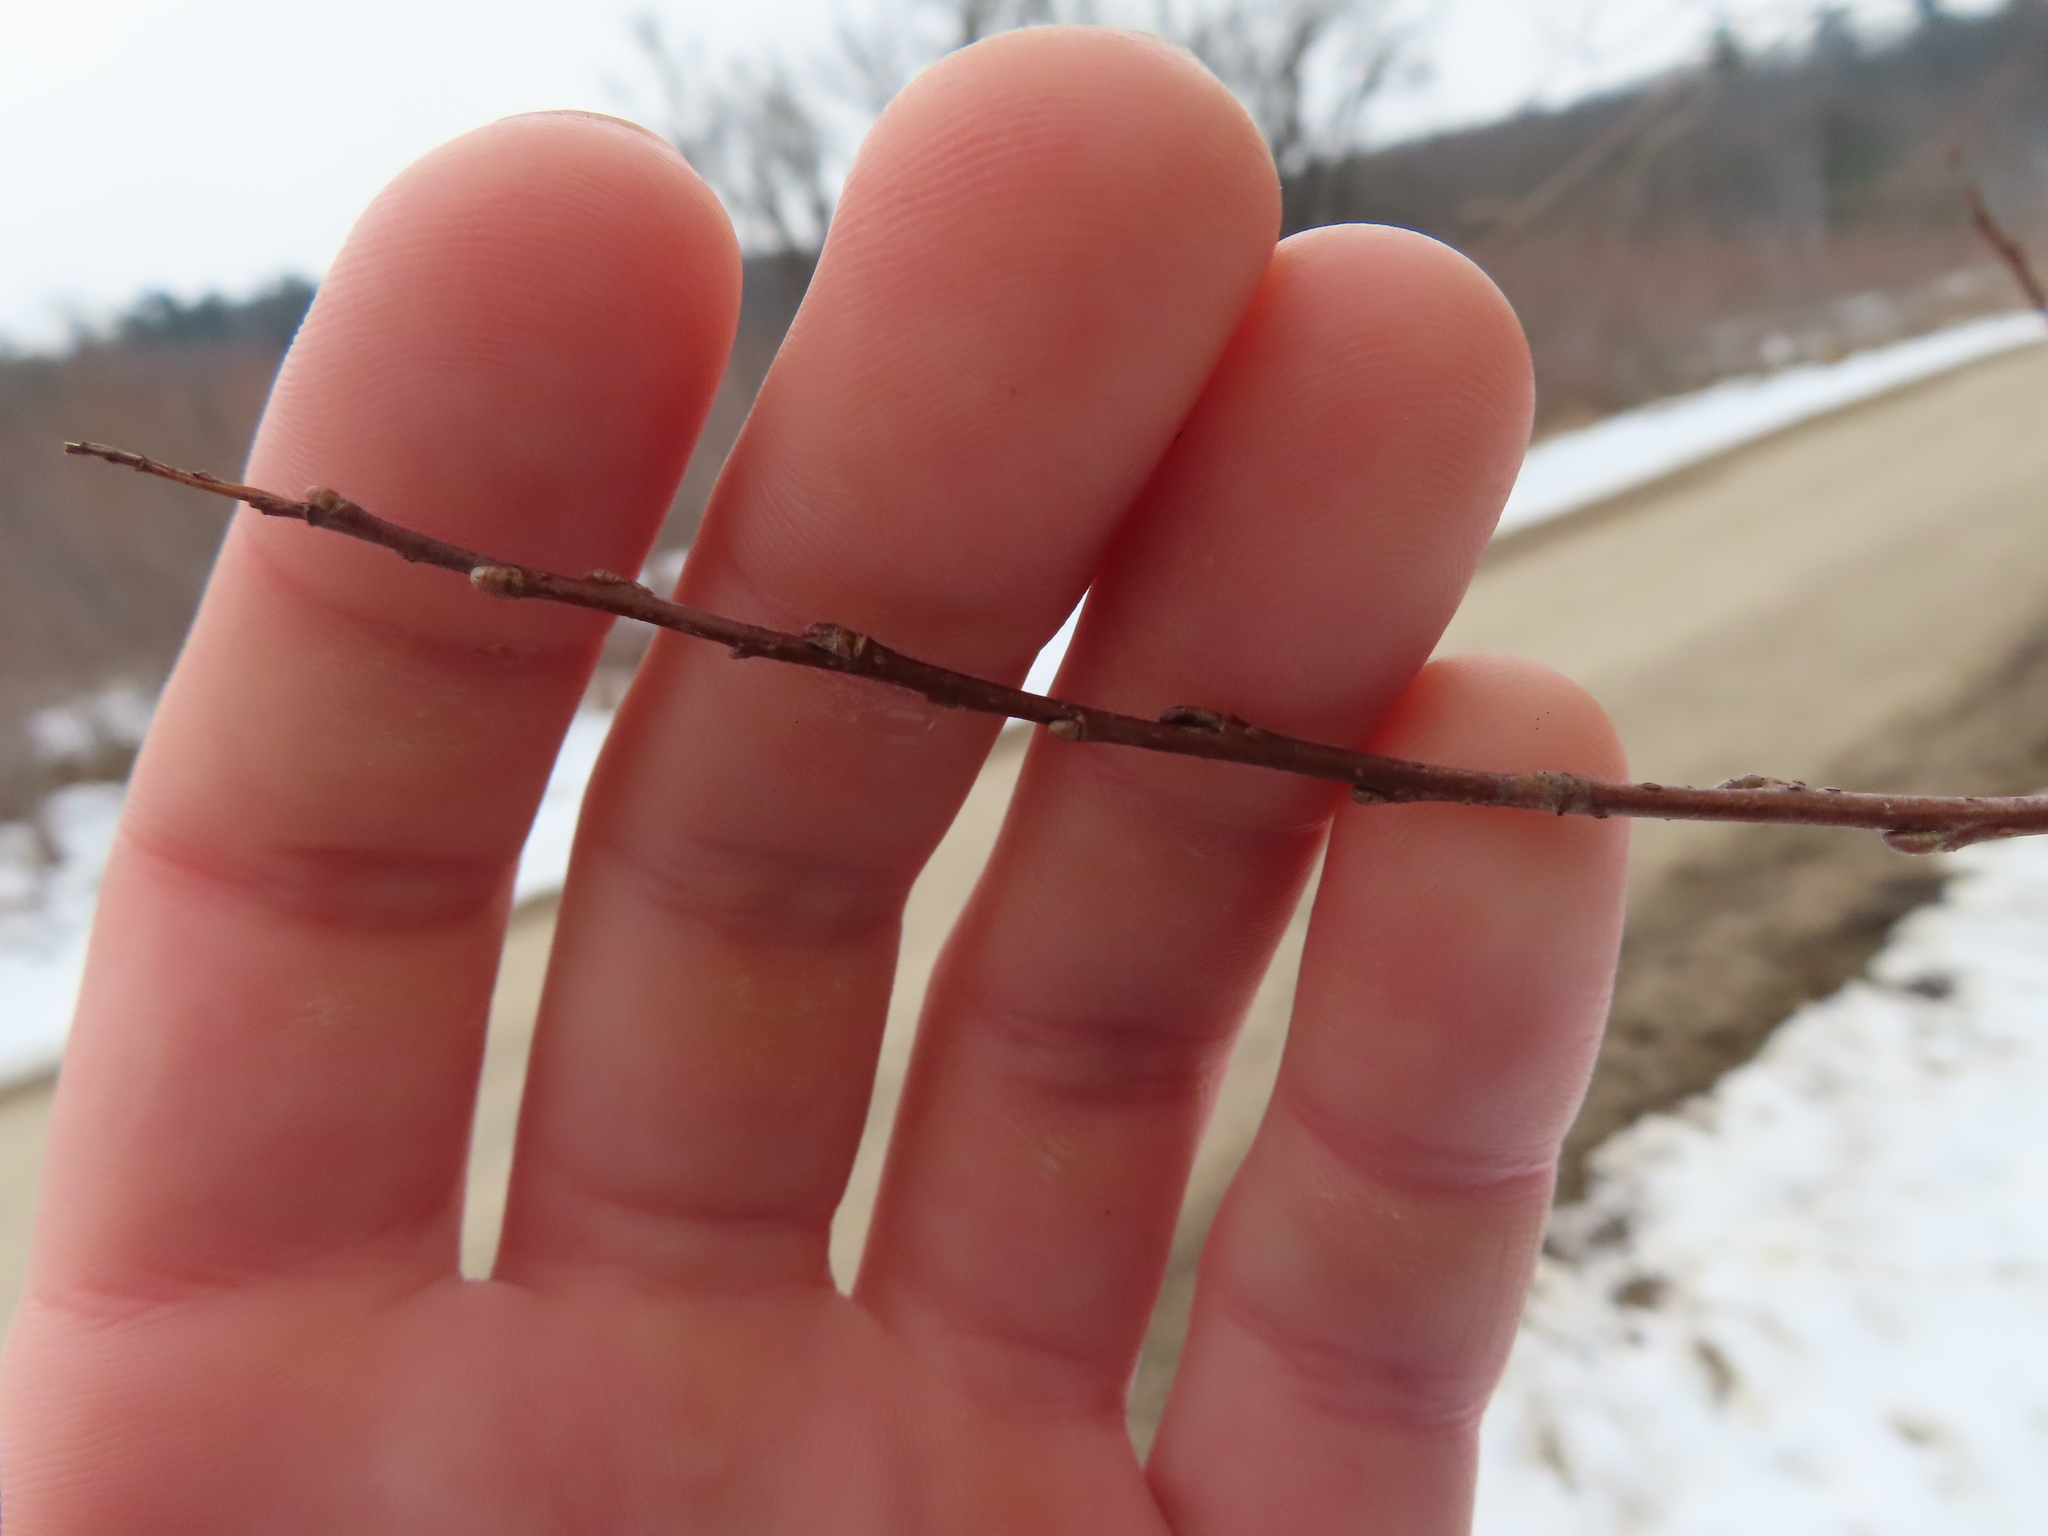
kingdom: Animalia
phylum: Arthropoda
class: Insecta
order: Diptera
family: Cecidomyiidae
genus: Rabdophaga
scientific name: Rabdophaga salicisbrassicoides
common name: Willow cabbagegall midge
